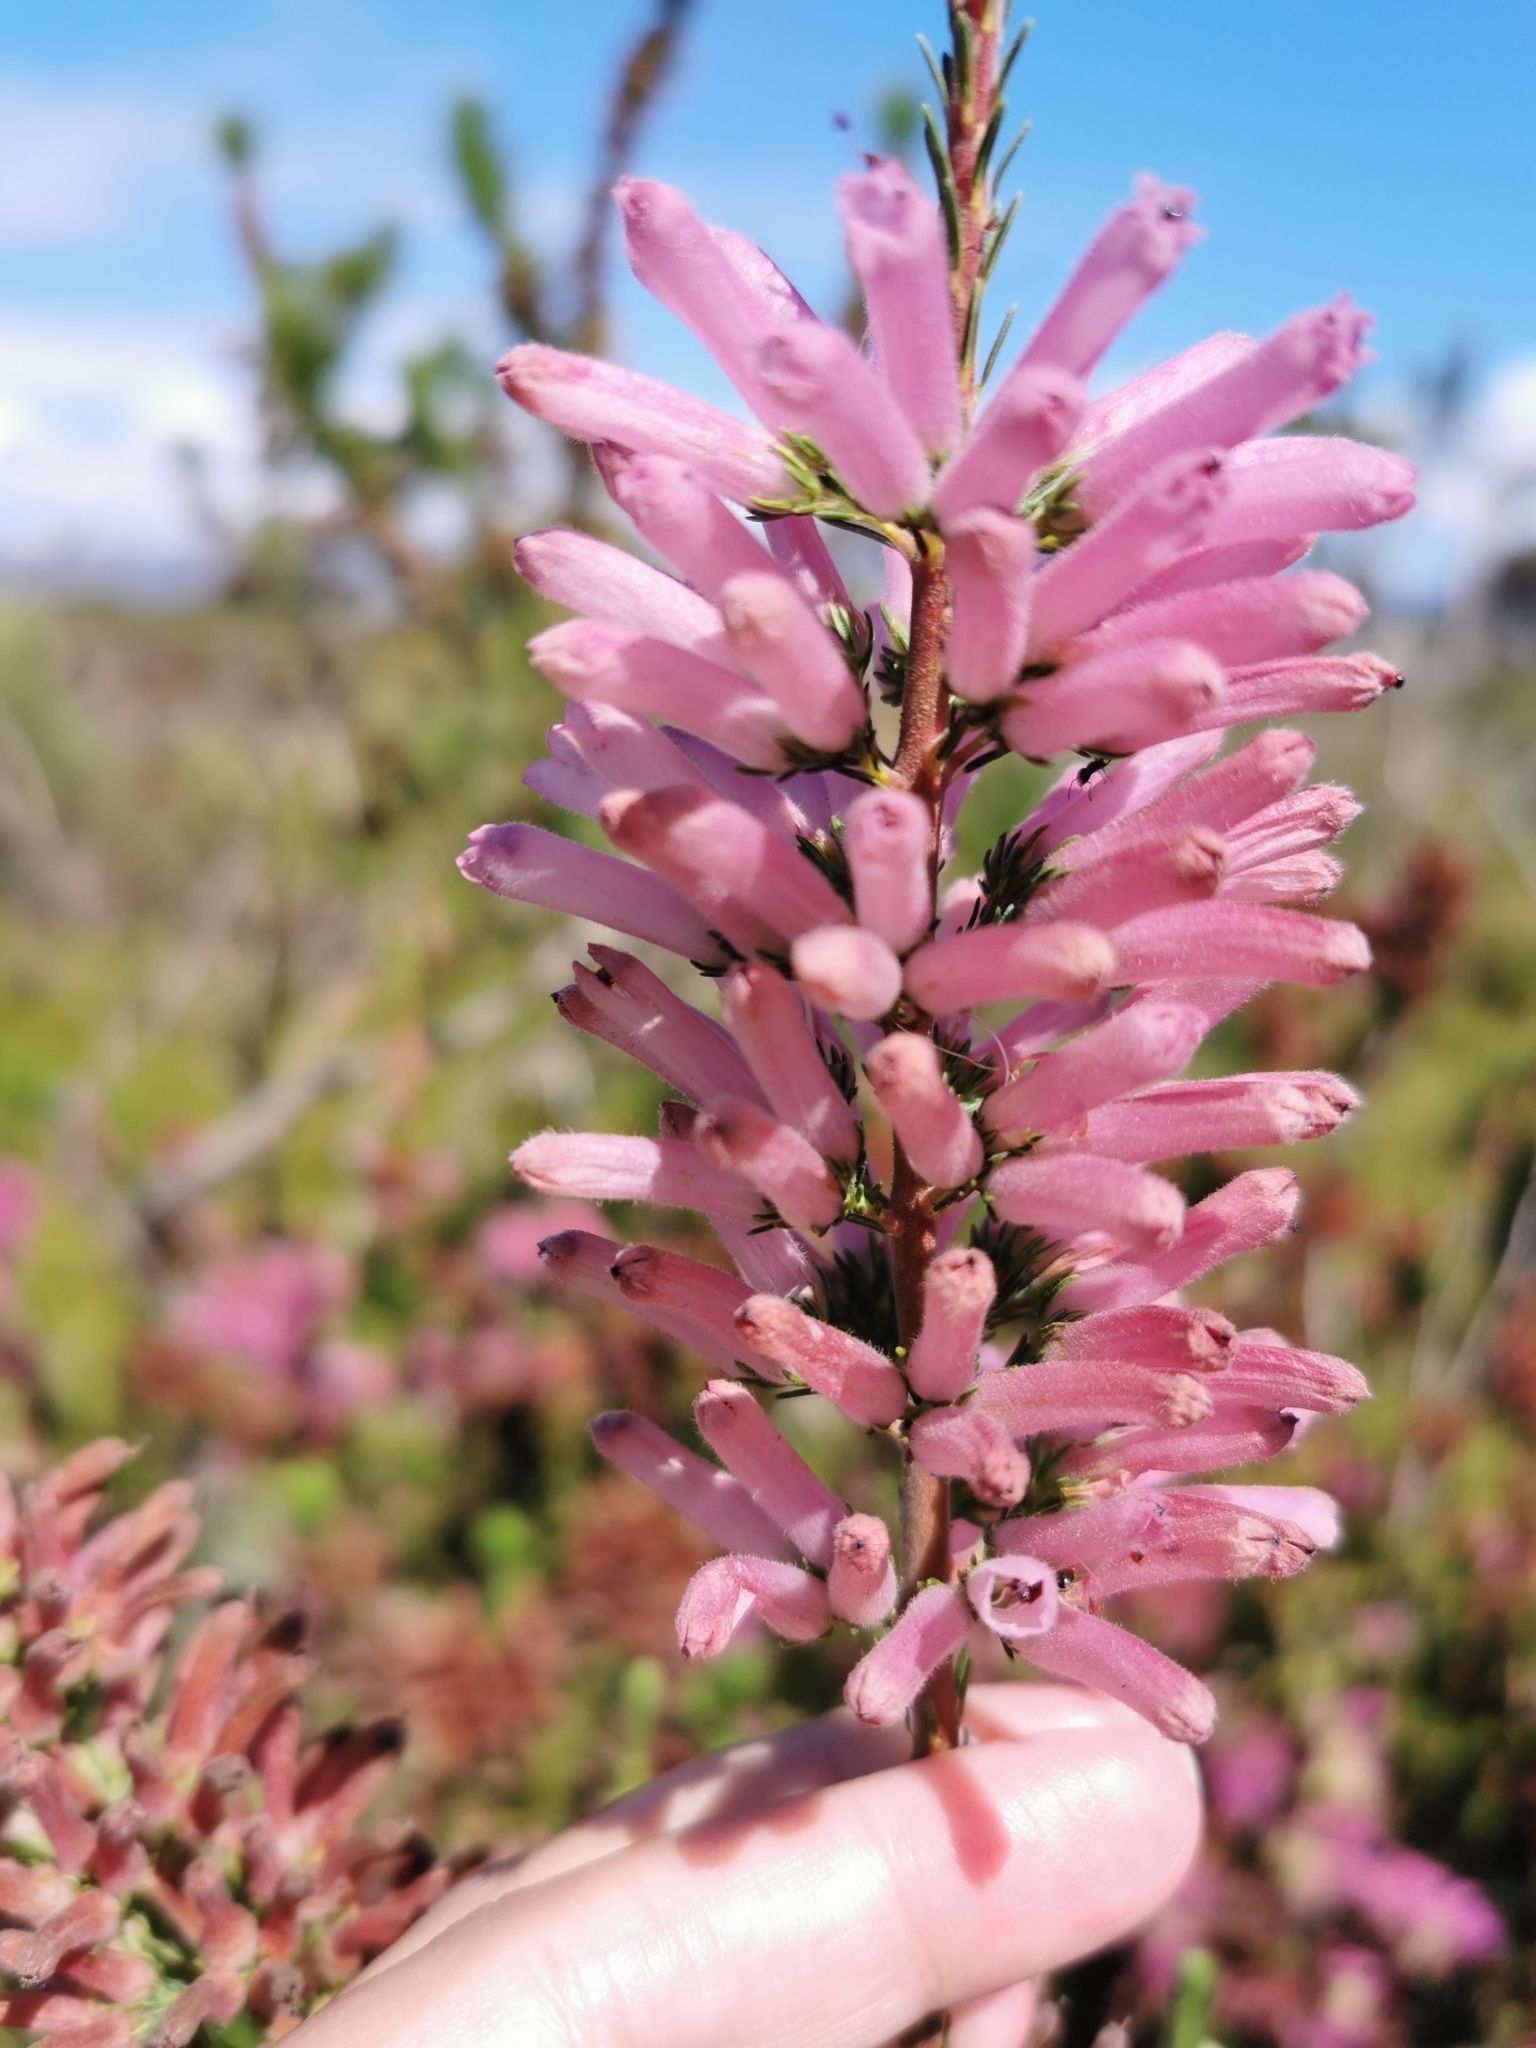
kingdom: Plantae
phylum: Tracheophyta
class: Magnoliopsida
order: Ericales
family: Ericaceae
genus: Erica
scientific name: Erica verticillata
